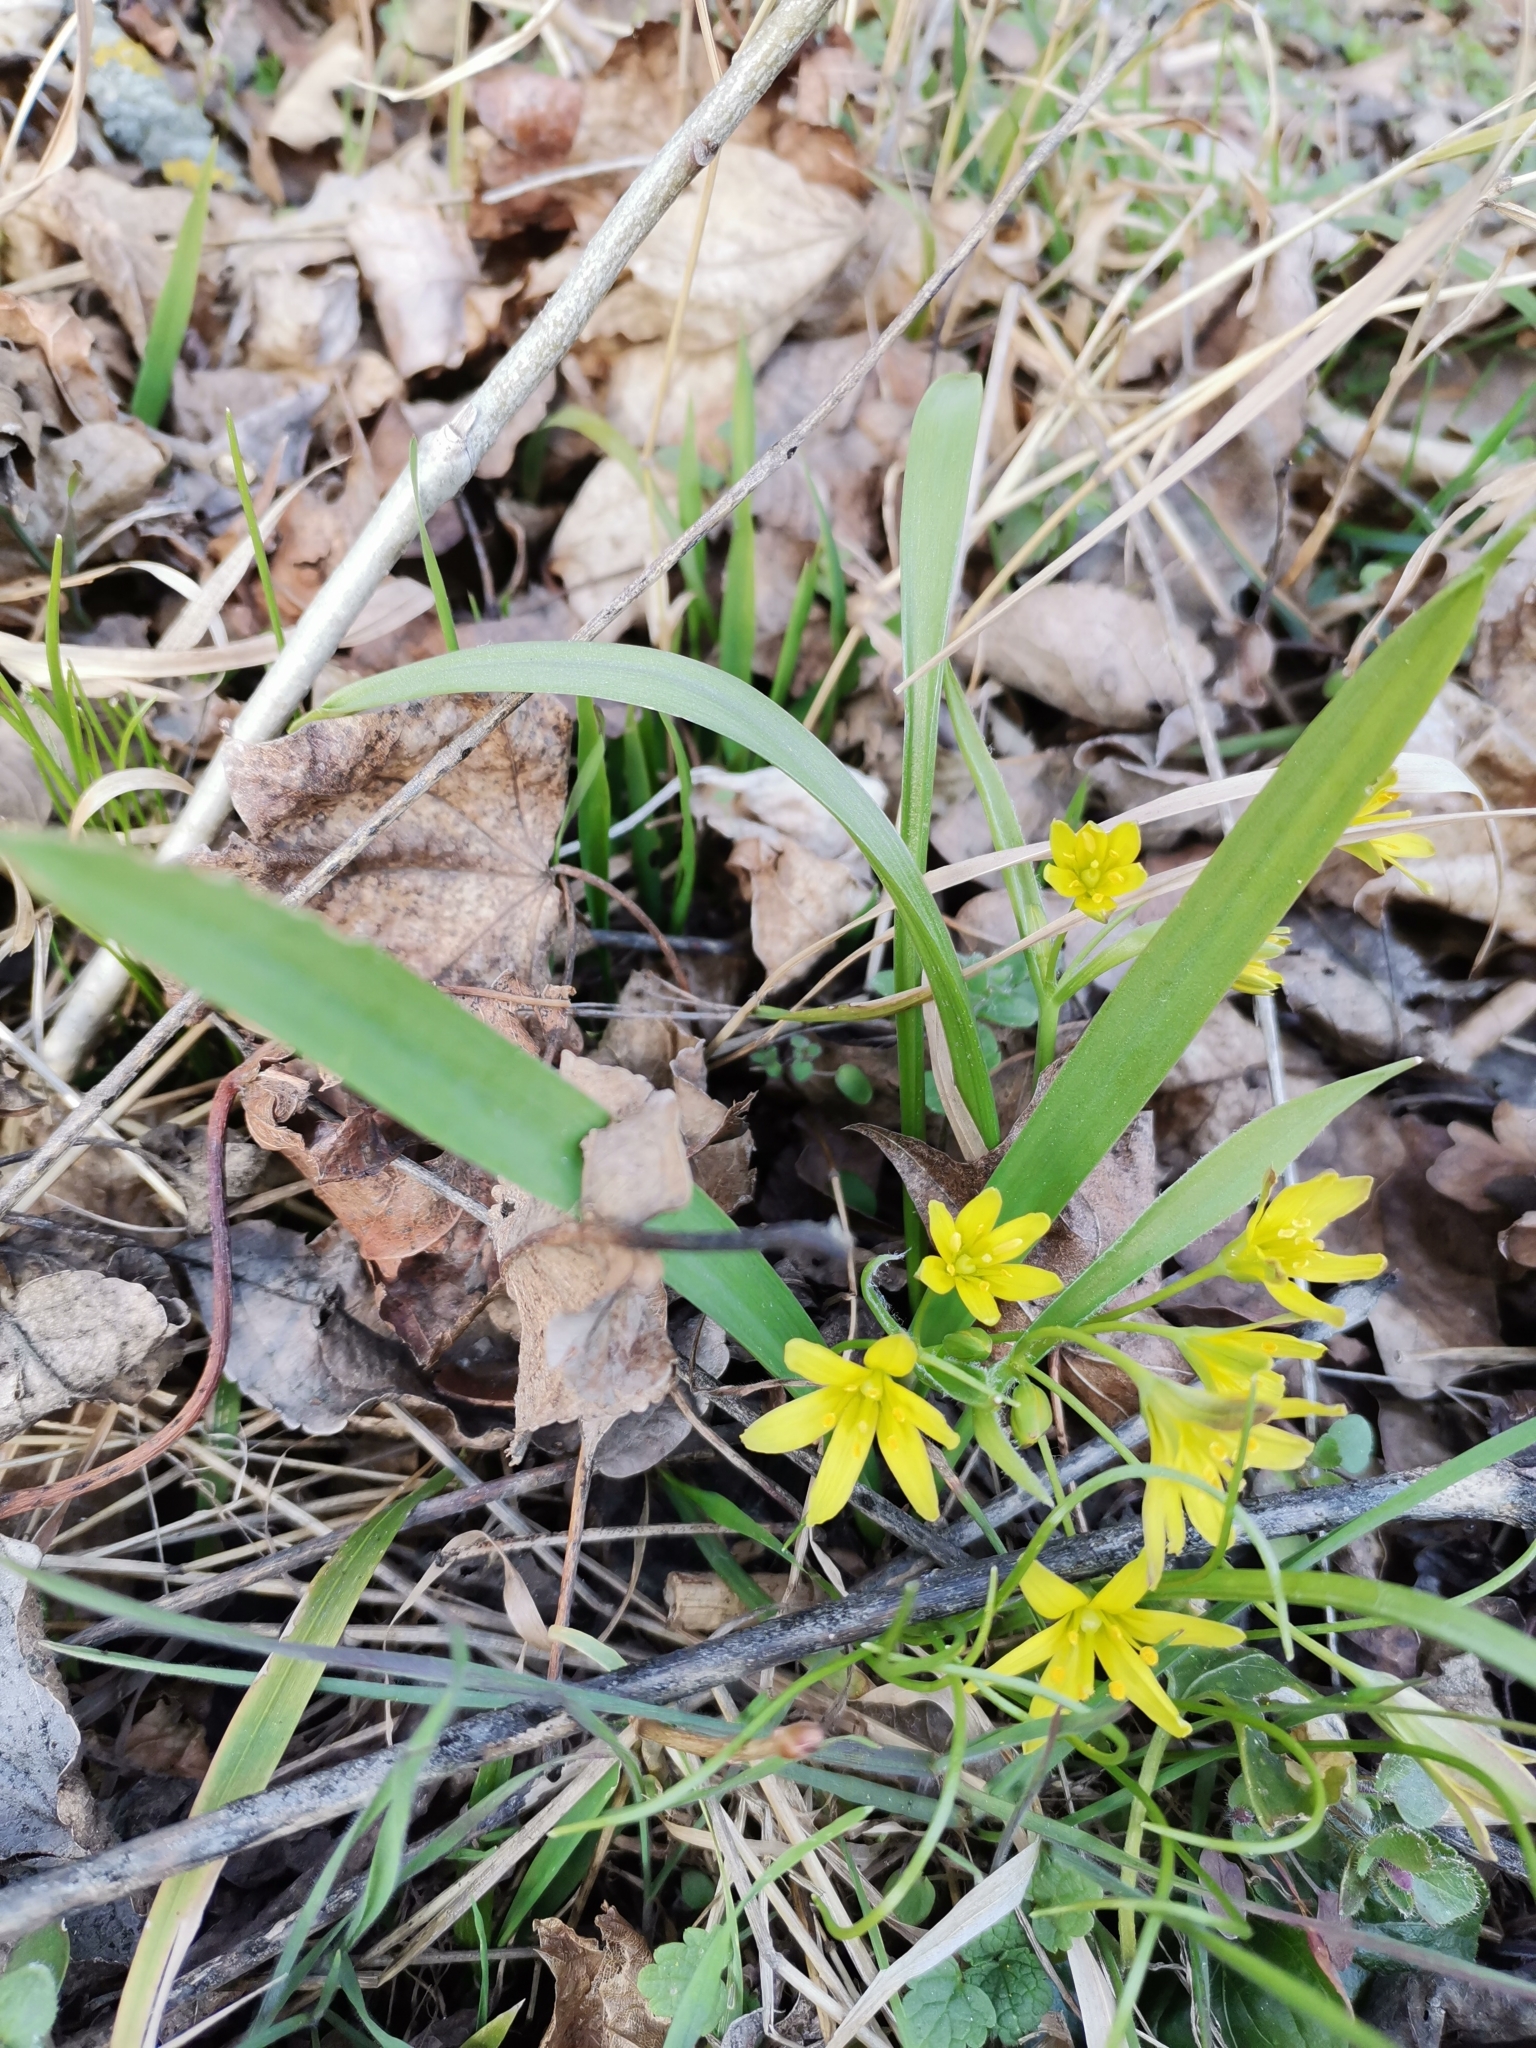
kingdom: Plantae
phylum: Tracheophyta
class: Liliopsida
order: Liliales
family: Liliaceae
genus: Gagea
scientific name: Gagea lutea
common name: Yellow star-of-bethlehem
